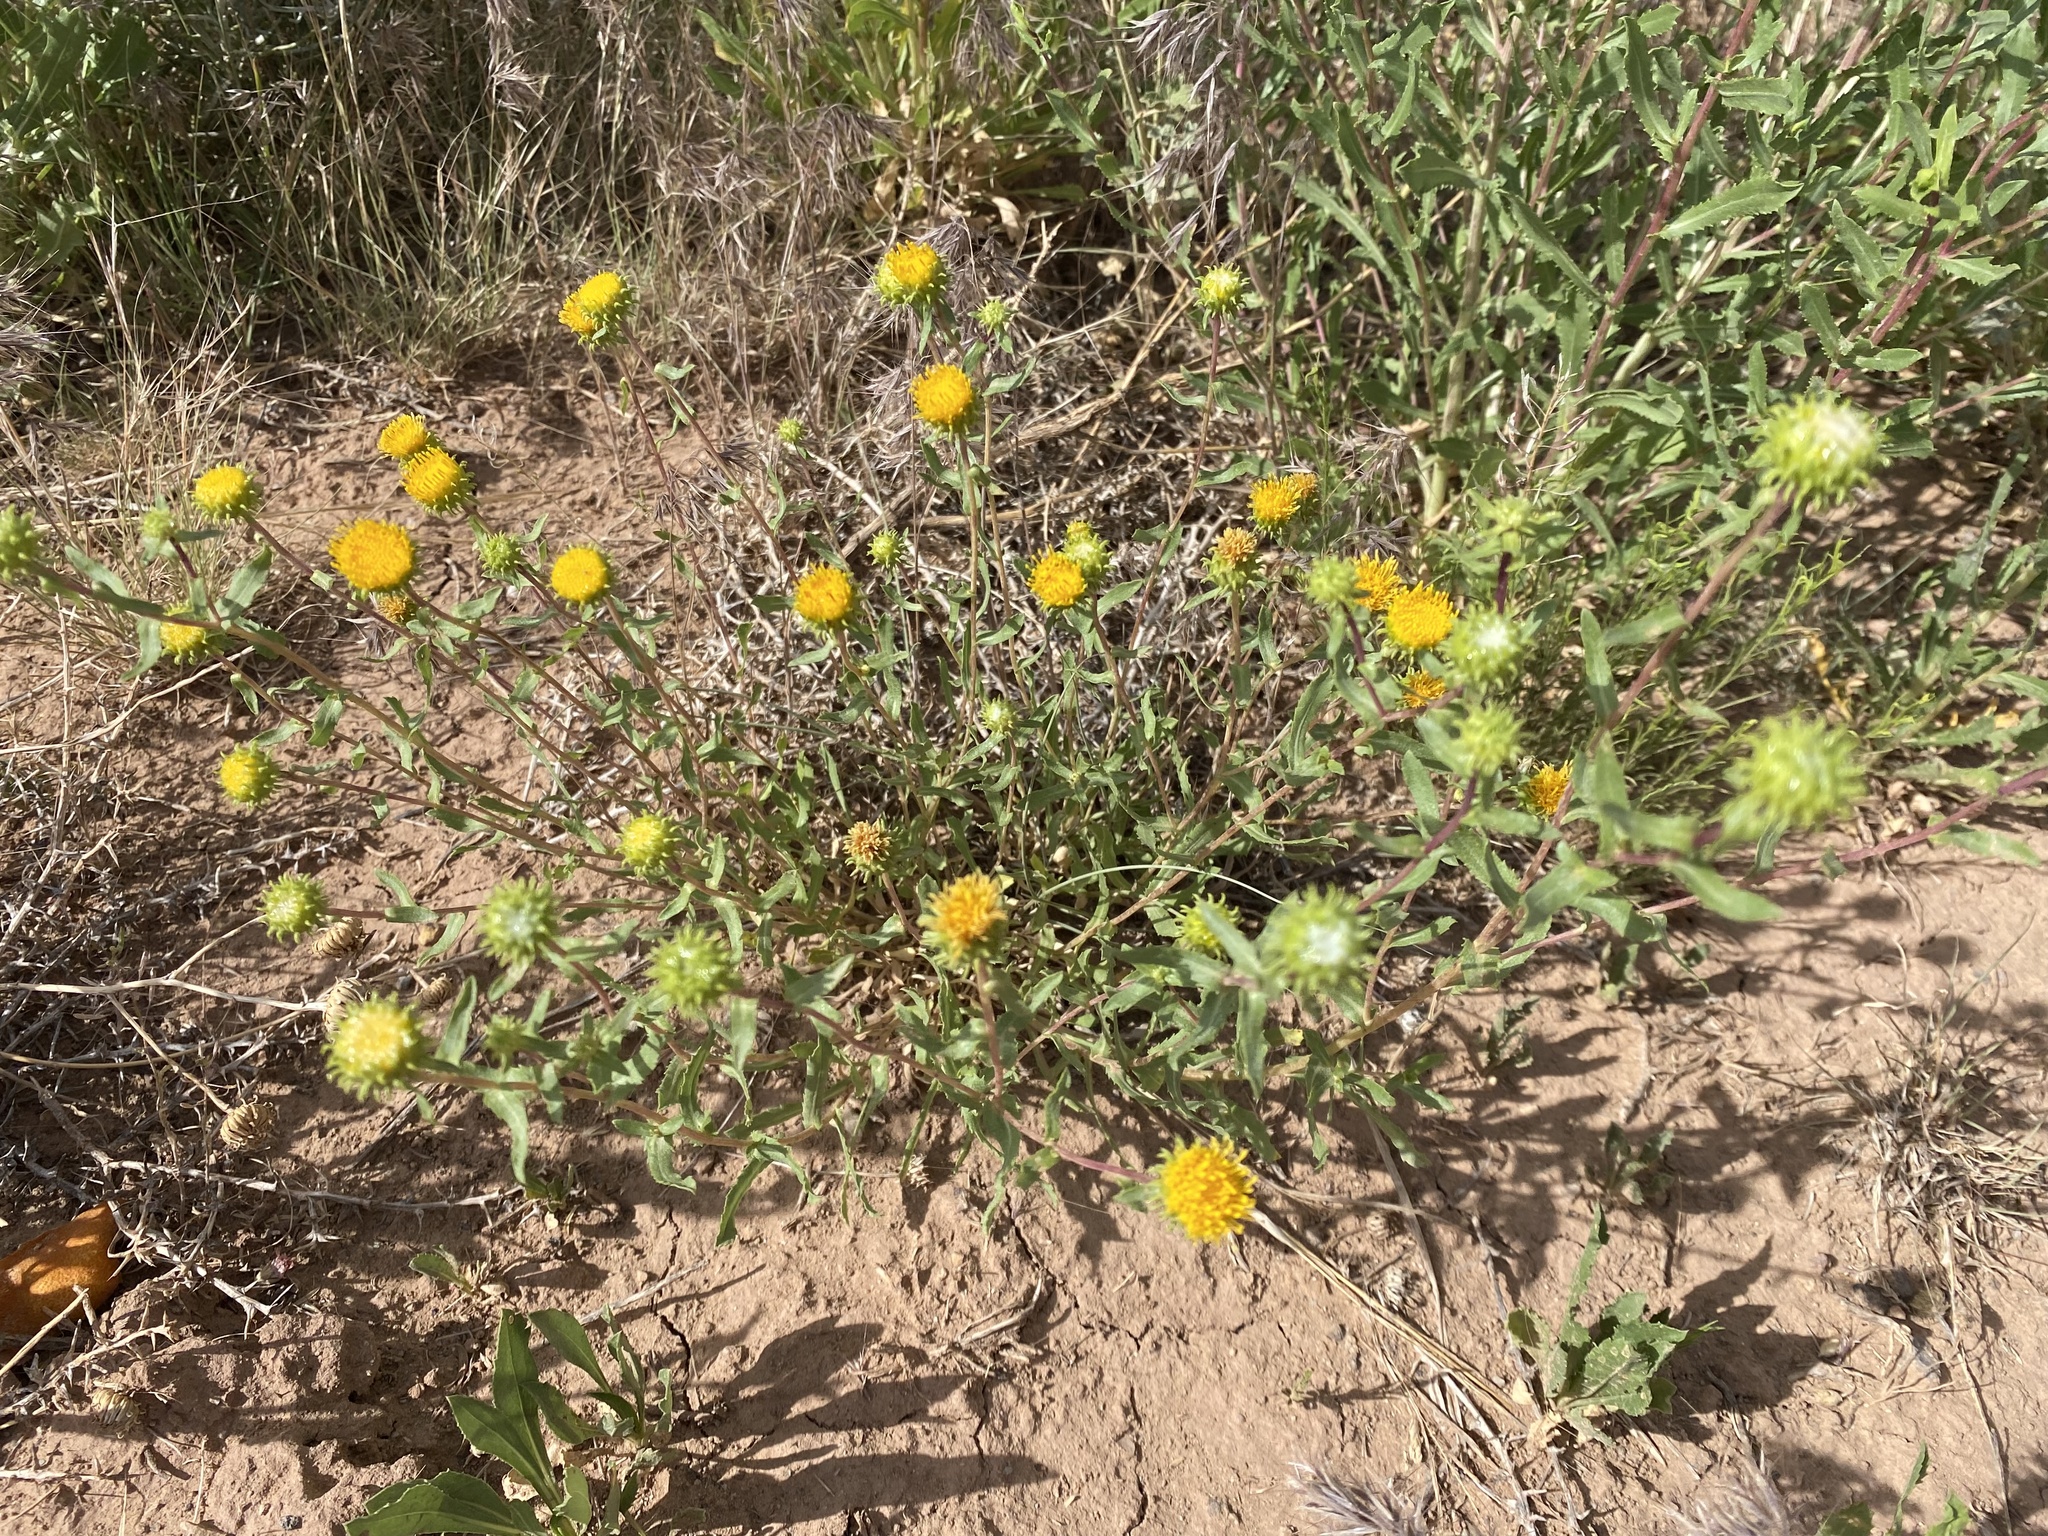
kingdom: Plantae
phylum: Tracheophyta
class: Magnoliopsida
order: Asterales
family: Asteraceae
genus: Grindelia
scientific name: Grindelia nuda
